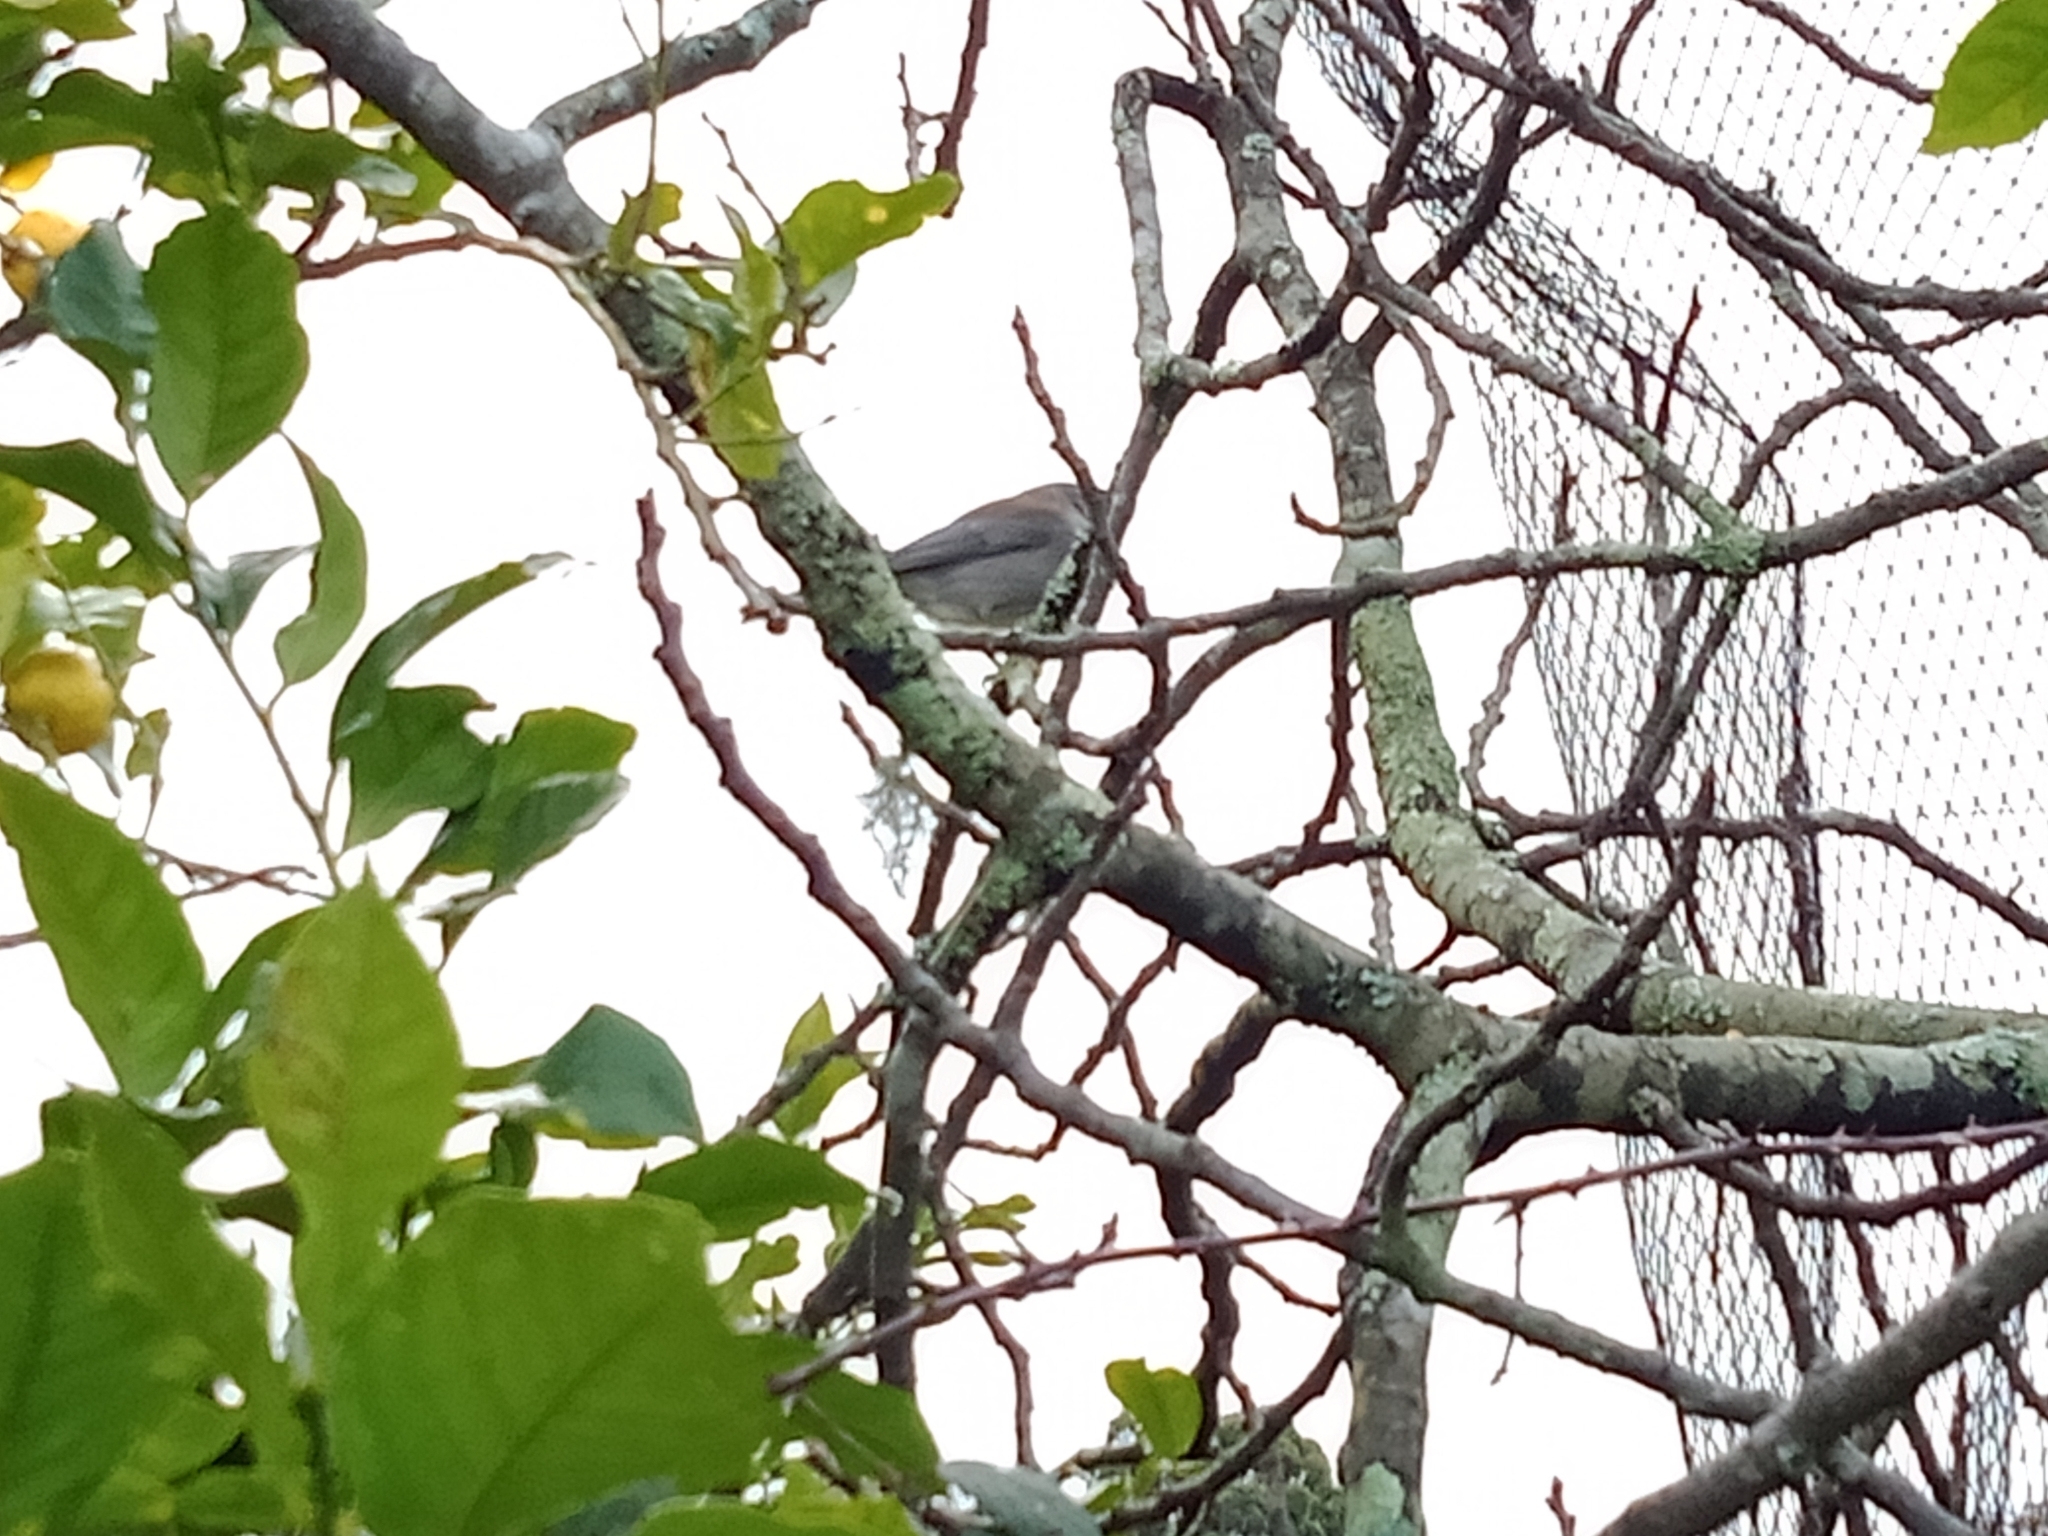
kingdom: Animalia
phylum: Chordata
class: Aves
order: Passeriformes
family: Pachycephalidae
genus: Colluricincla
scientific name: Colluricincla harmonica
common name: Grey shrikethrush
